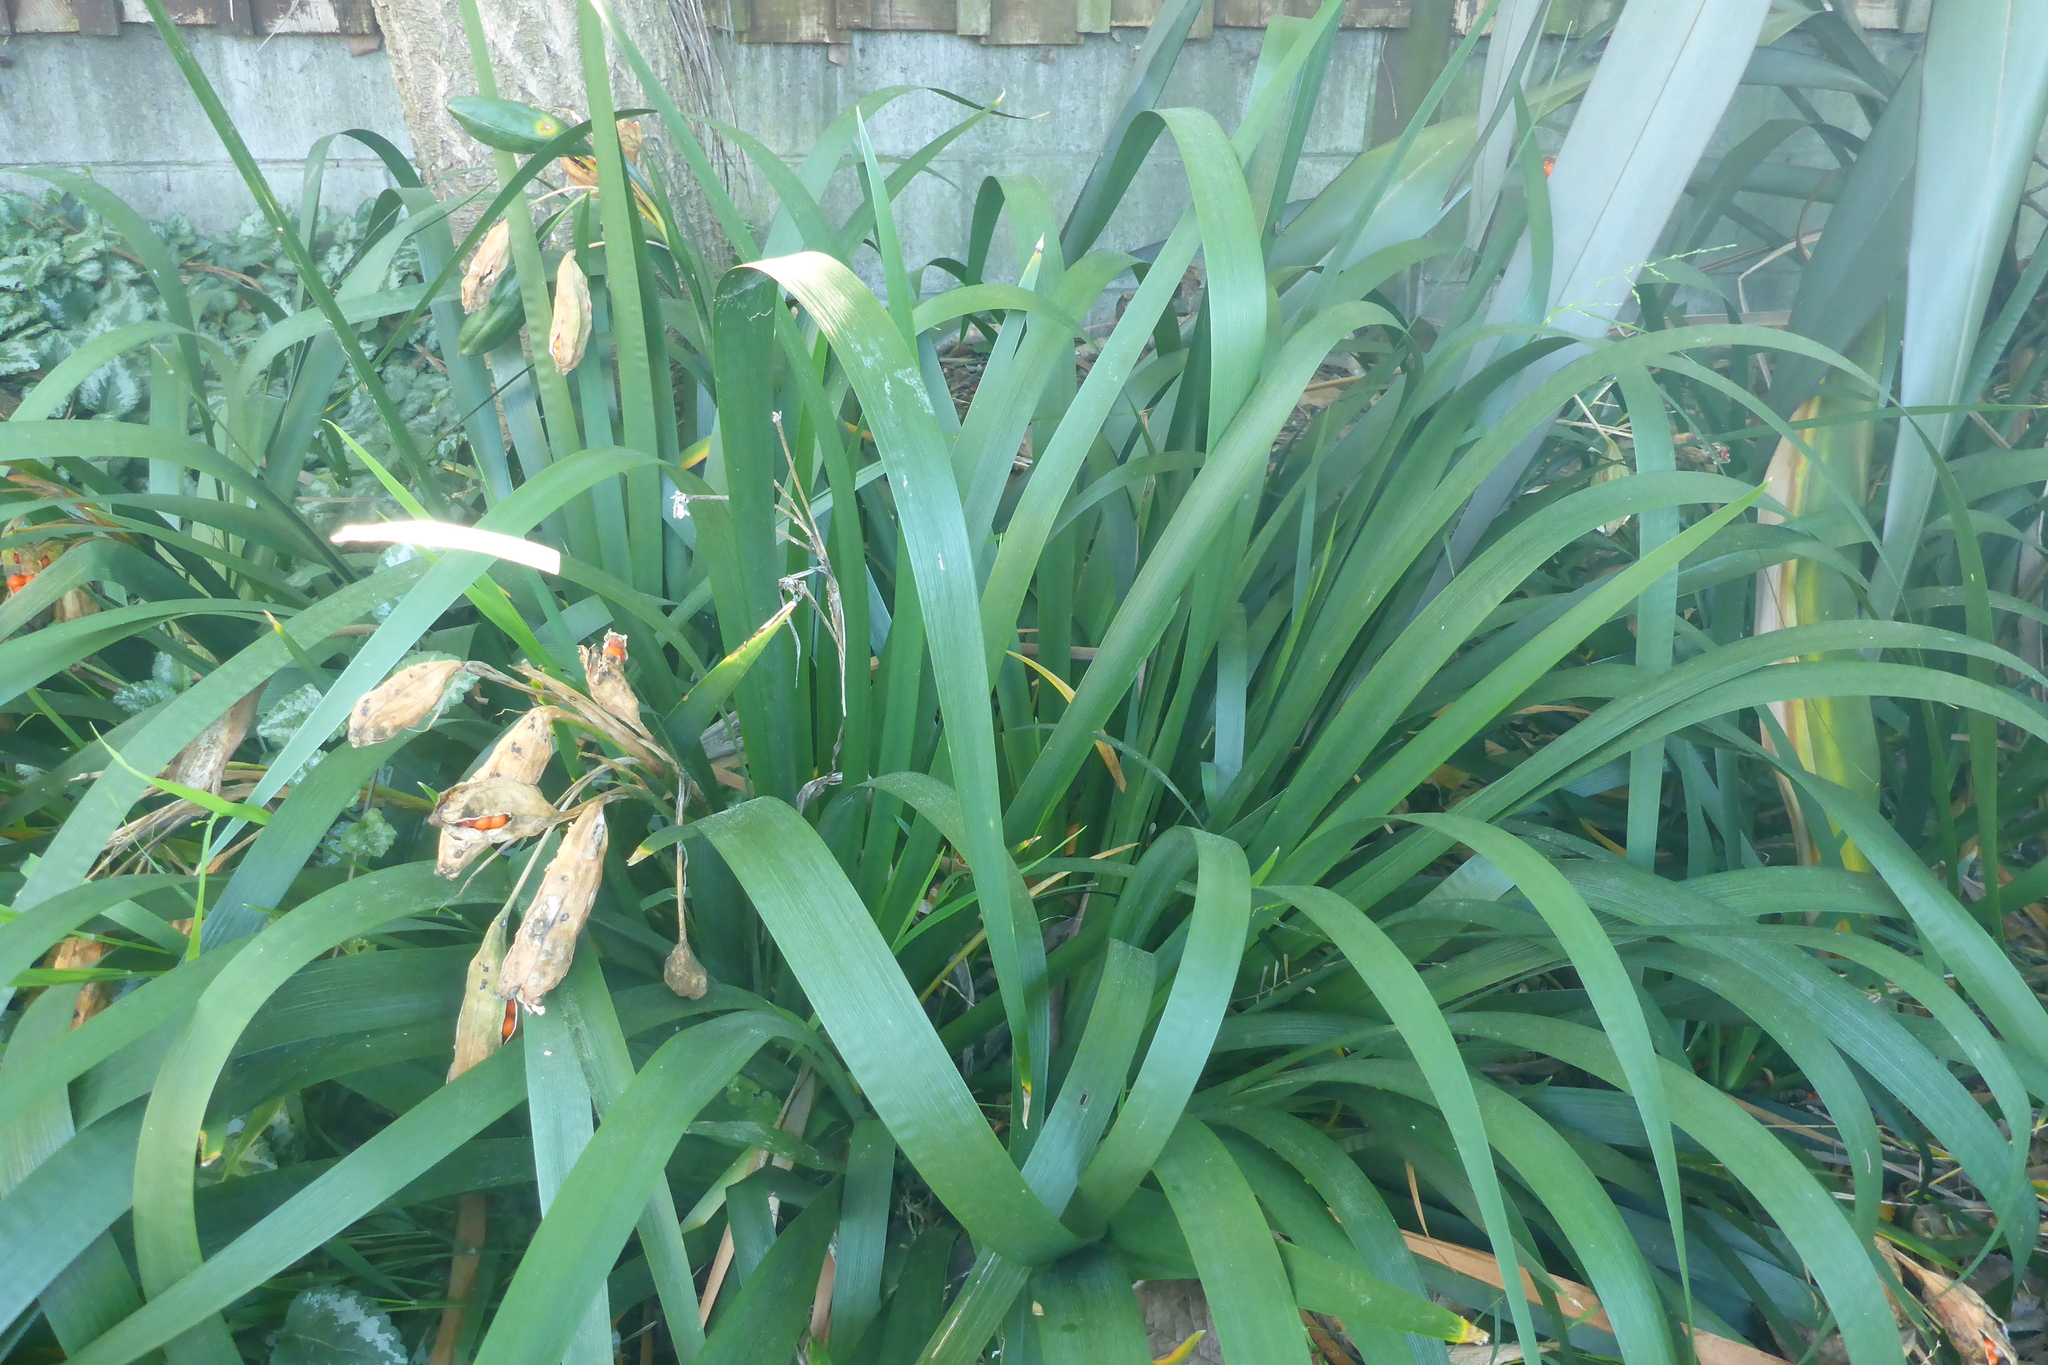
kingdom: Plantae
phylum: Tracheophyta
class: Liliopsida
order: Asparagales
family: Iridaceae
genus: Iris
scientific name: Iris foetidissima
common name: Stinking iris
